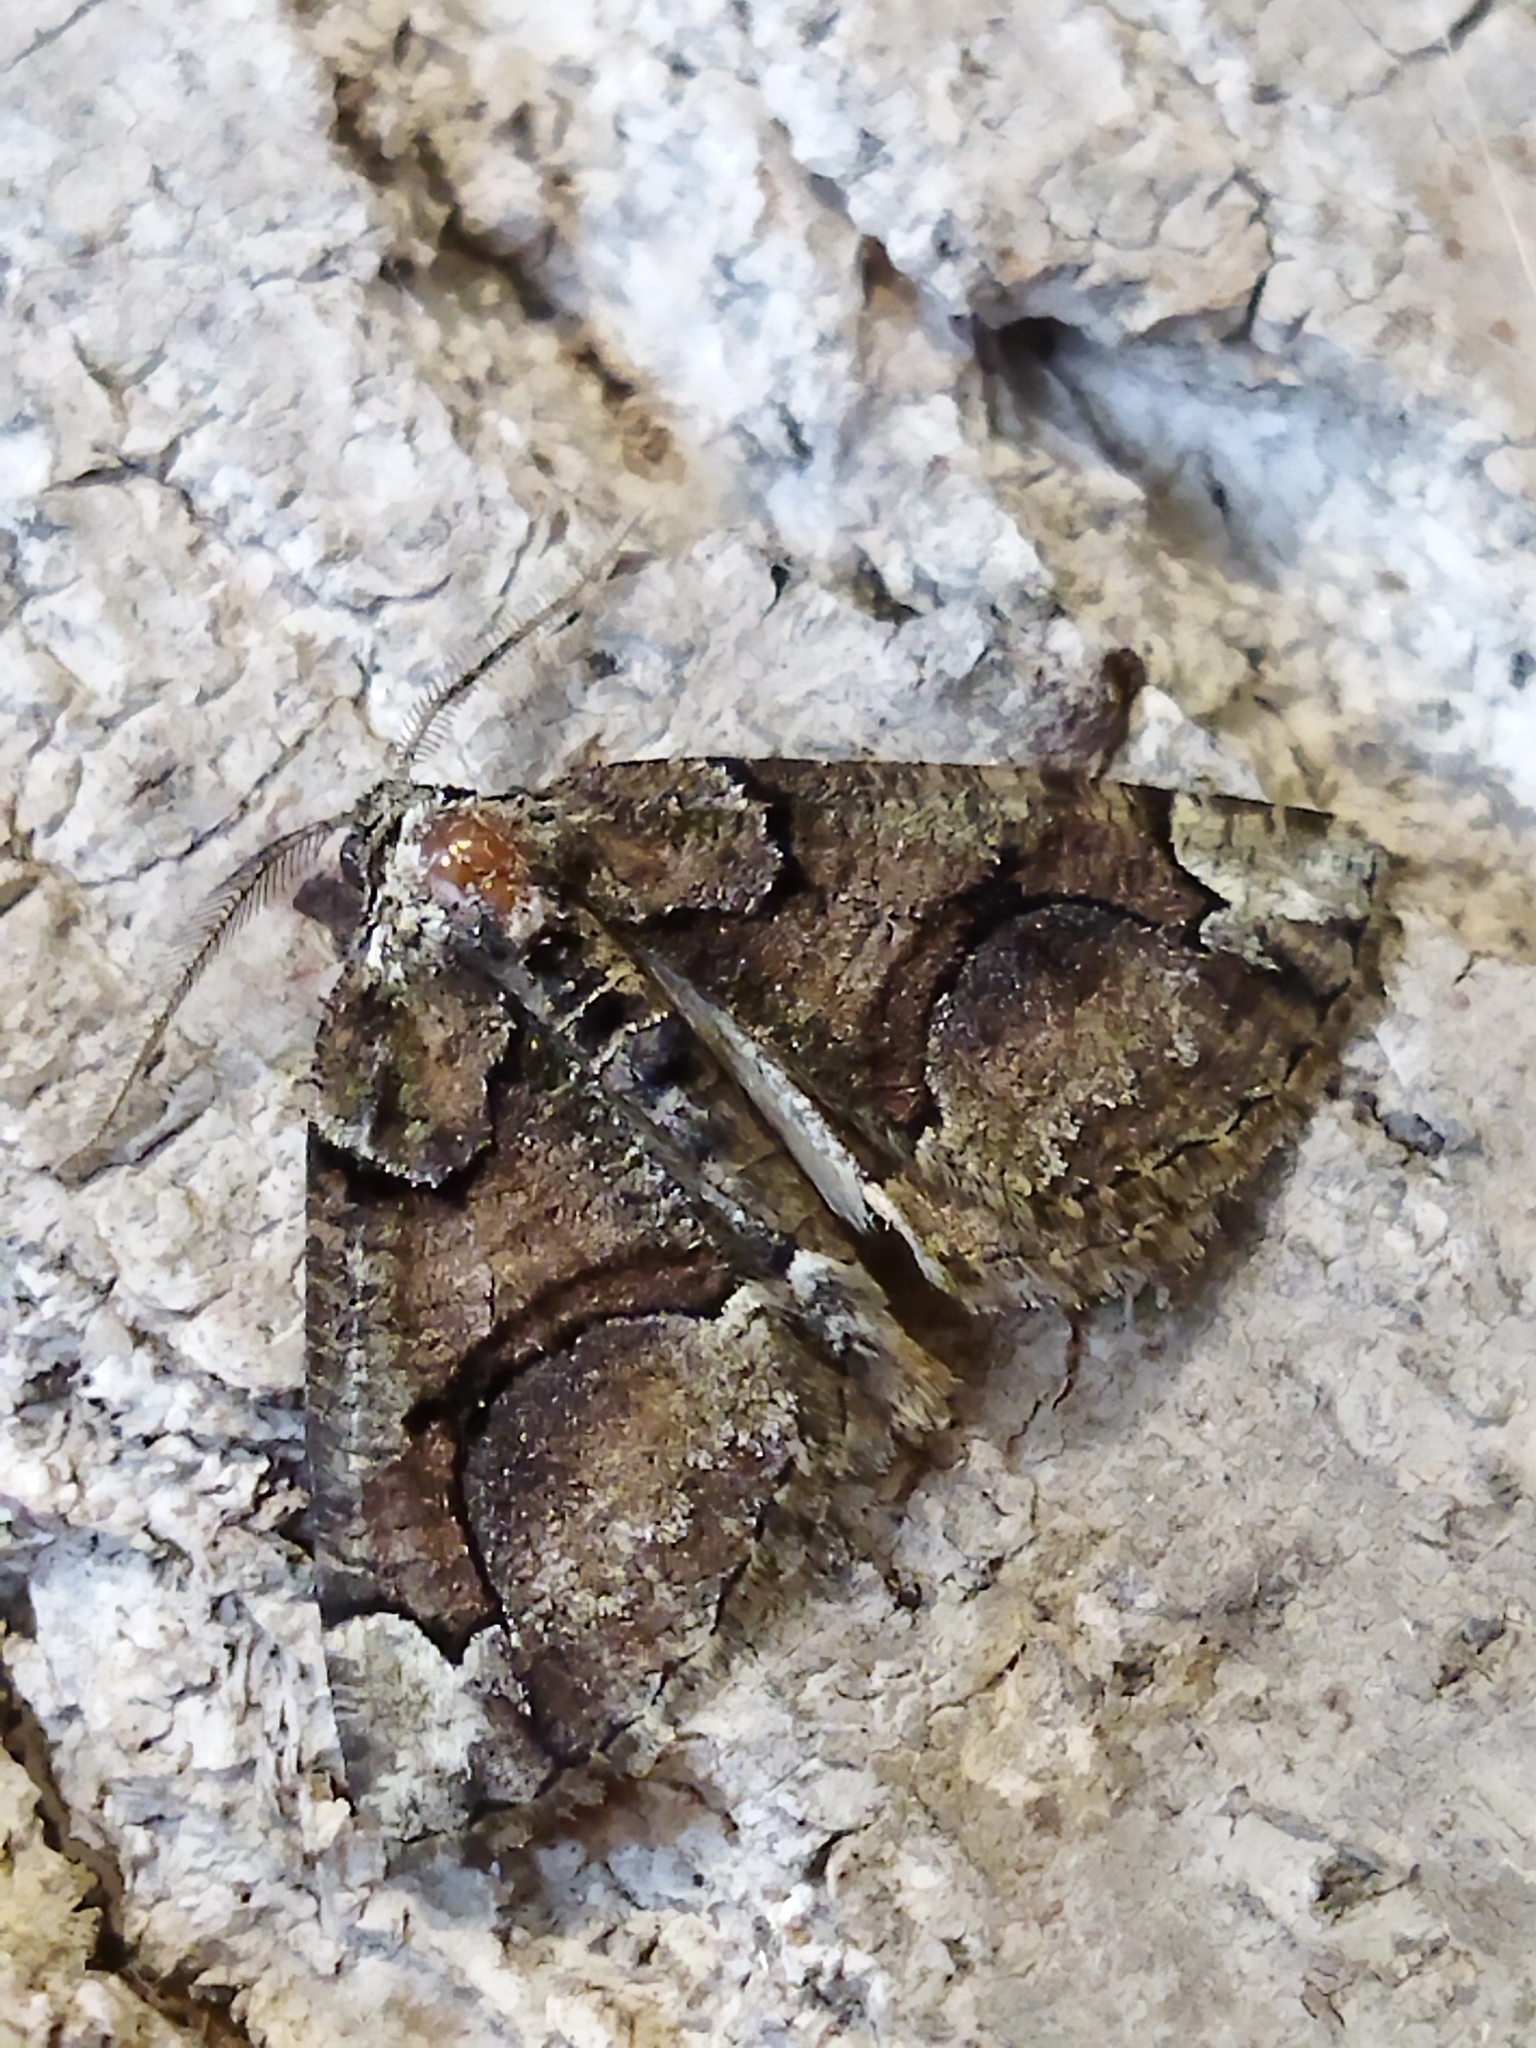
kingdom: Animalia
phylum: Arthropoda
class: Insecta
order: Lepidoptera
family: Geometridae
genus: Asovia
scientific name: Asovia maeoticaria
